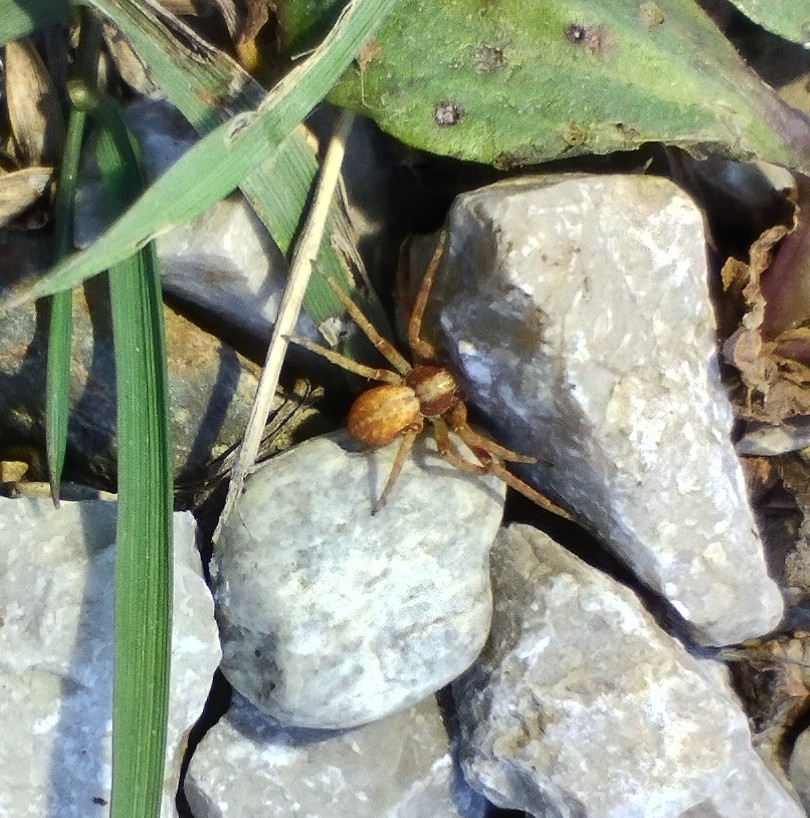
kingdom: Animalia
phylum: Arthropoda
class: Arachnida
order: Araneae
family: Philodromidae
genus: Philodromus
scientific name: Philodromus
